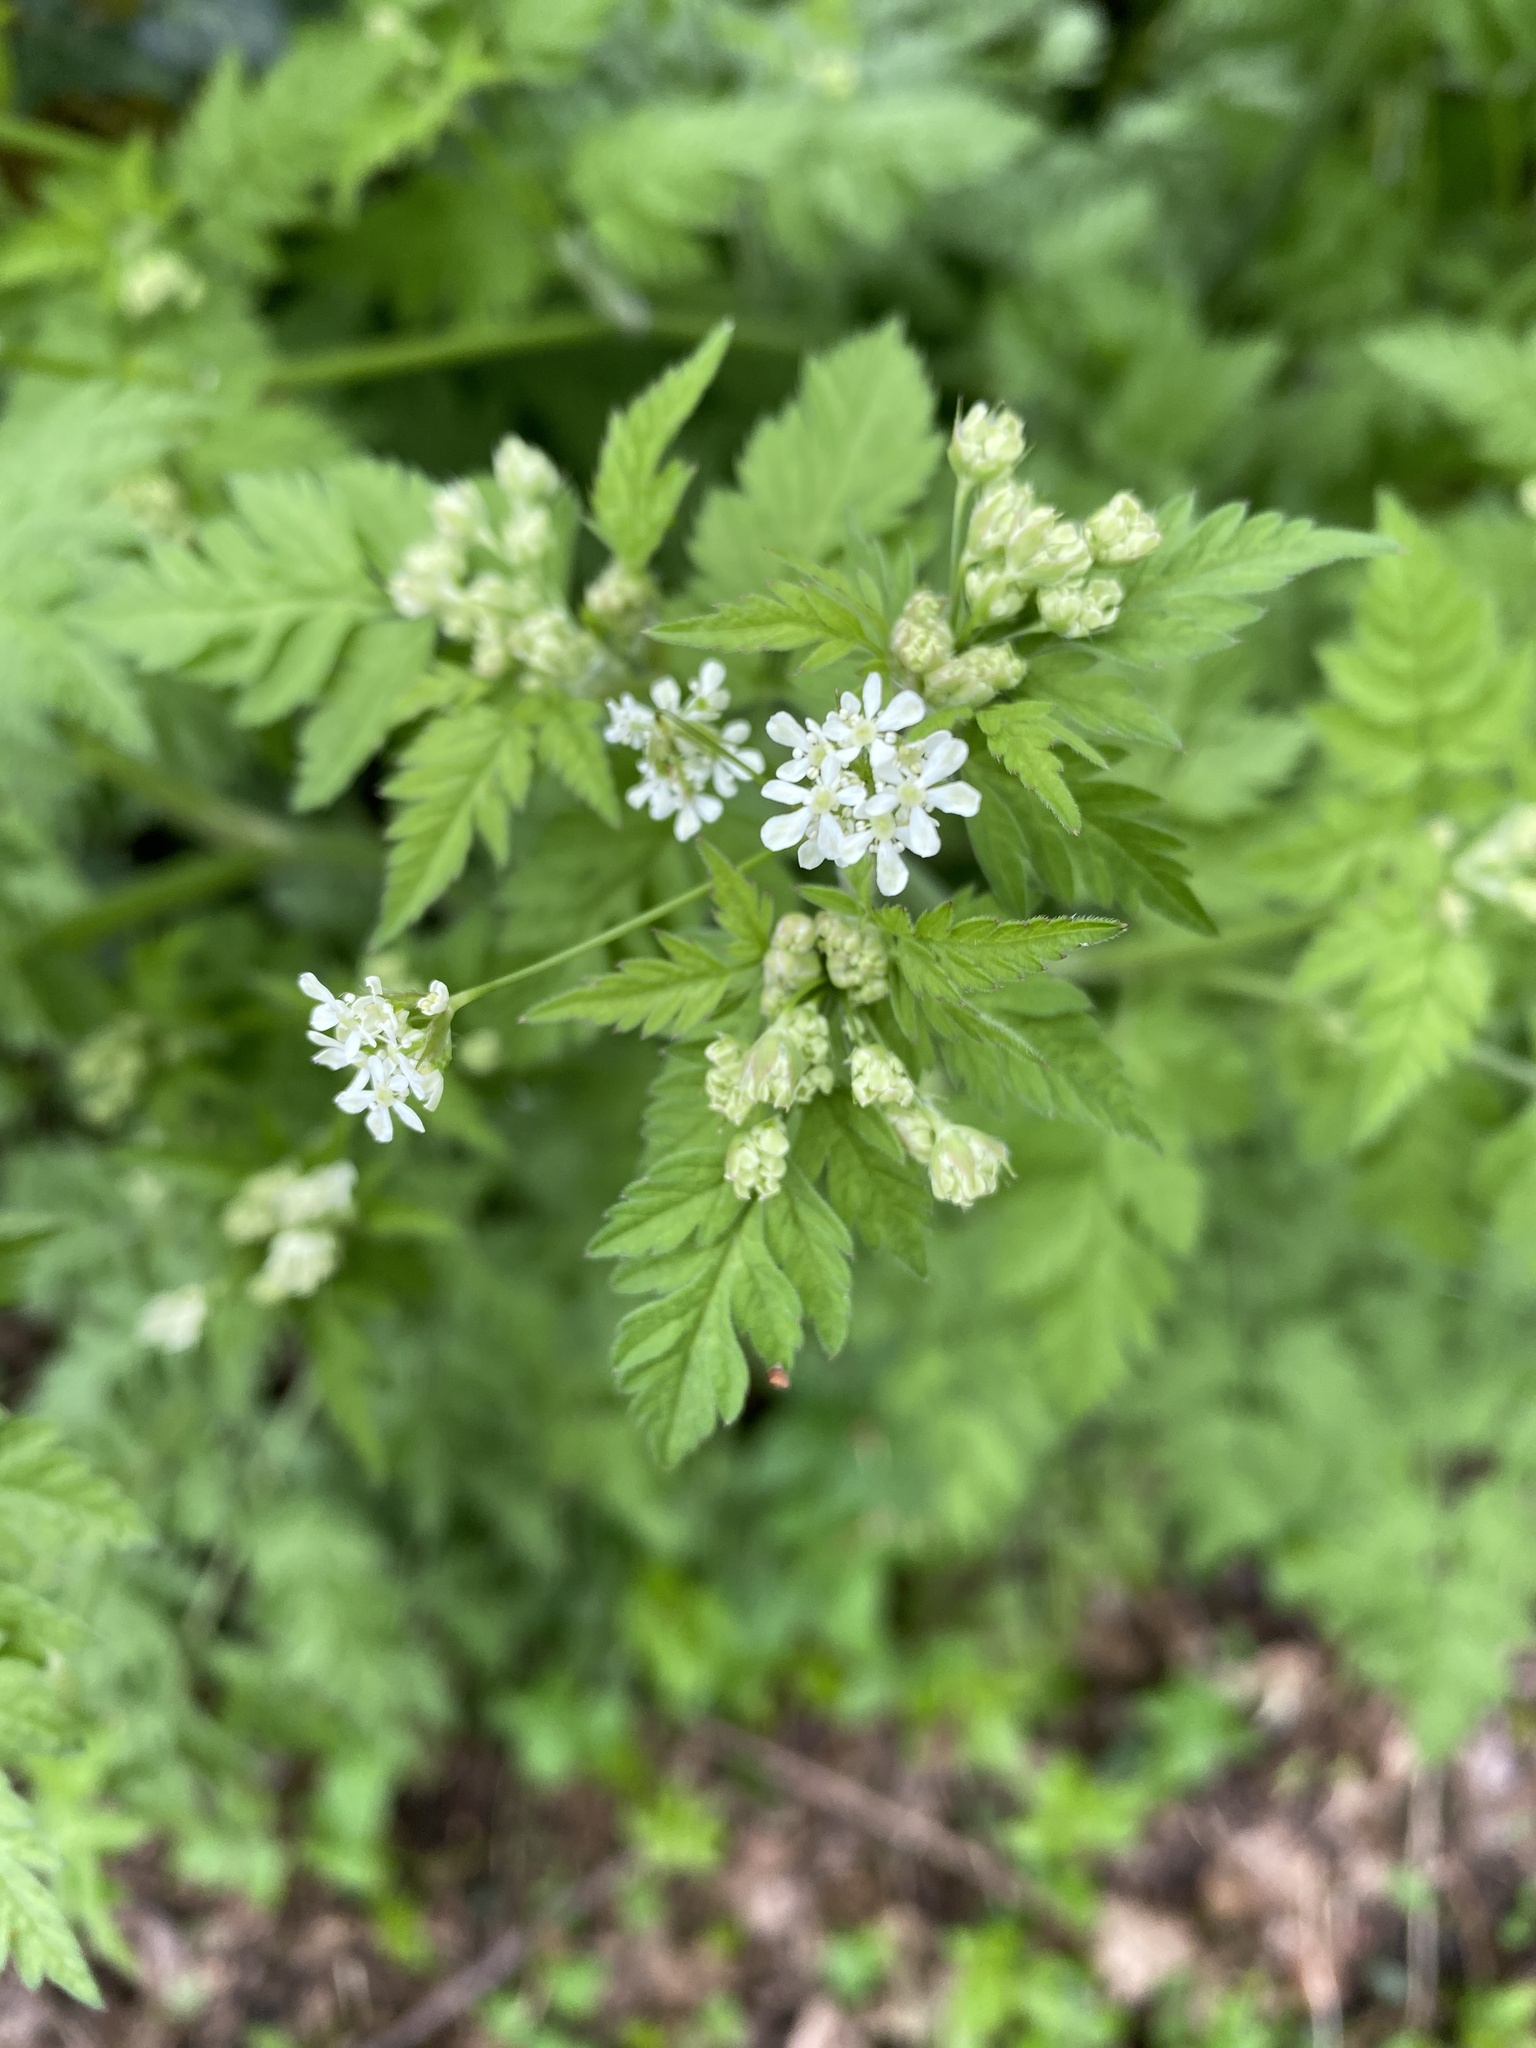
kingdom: Plantae
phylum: Tracheophyta
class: Magnoliopsida
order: Apiales
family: Apiaceae
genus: Anthriscus
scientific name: Anthriscus sylvestris
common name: Cow parsley
